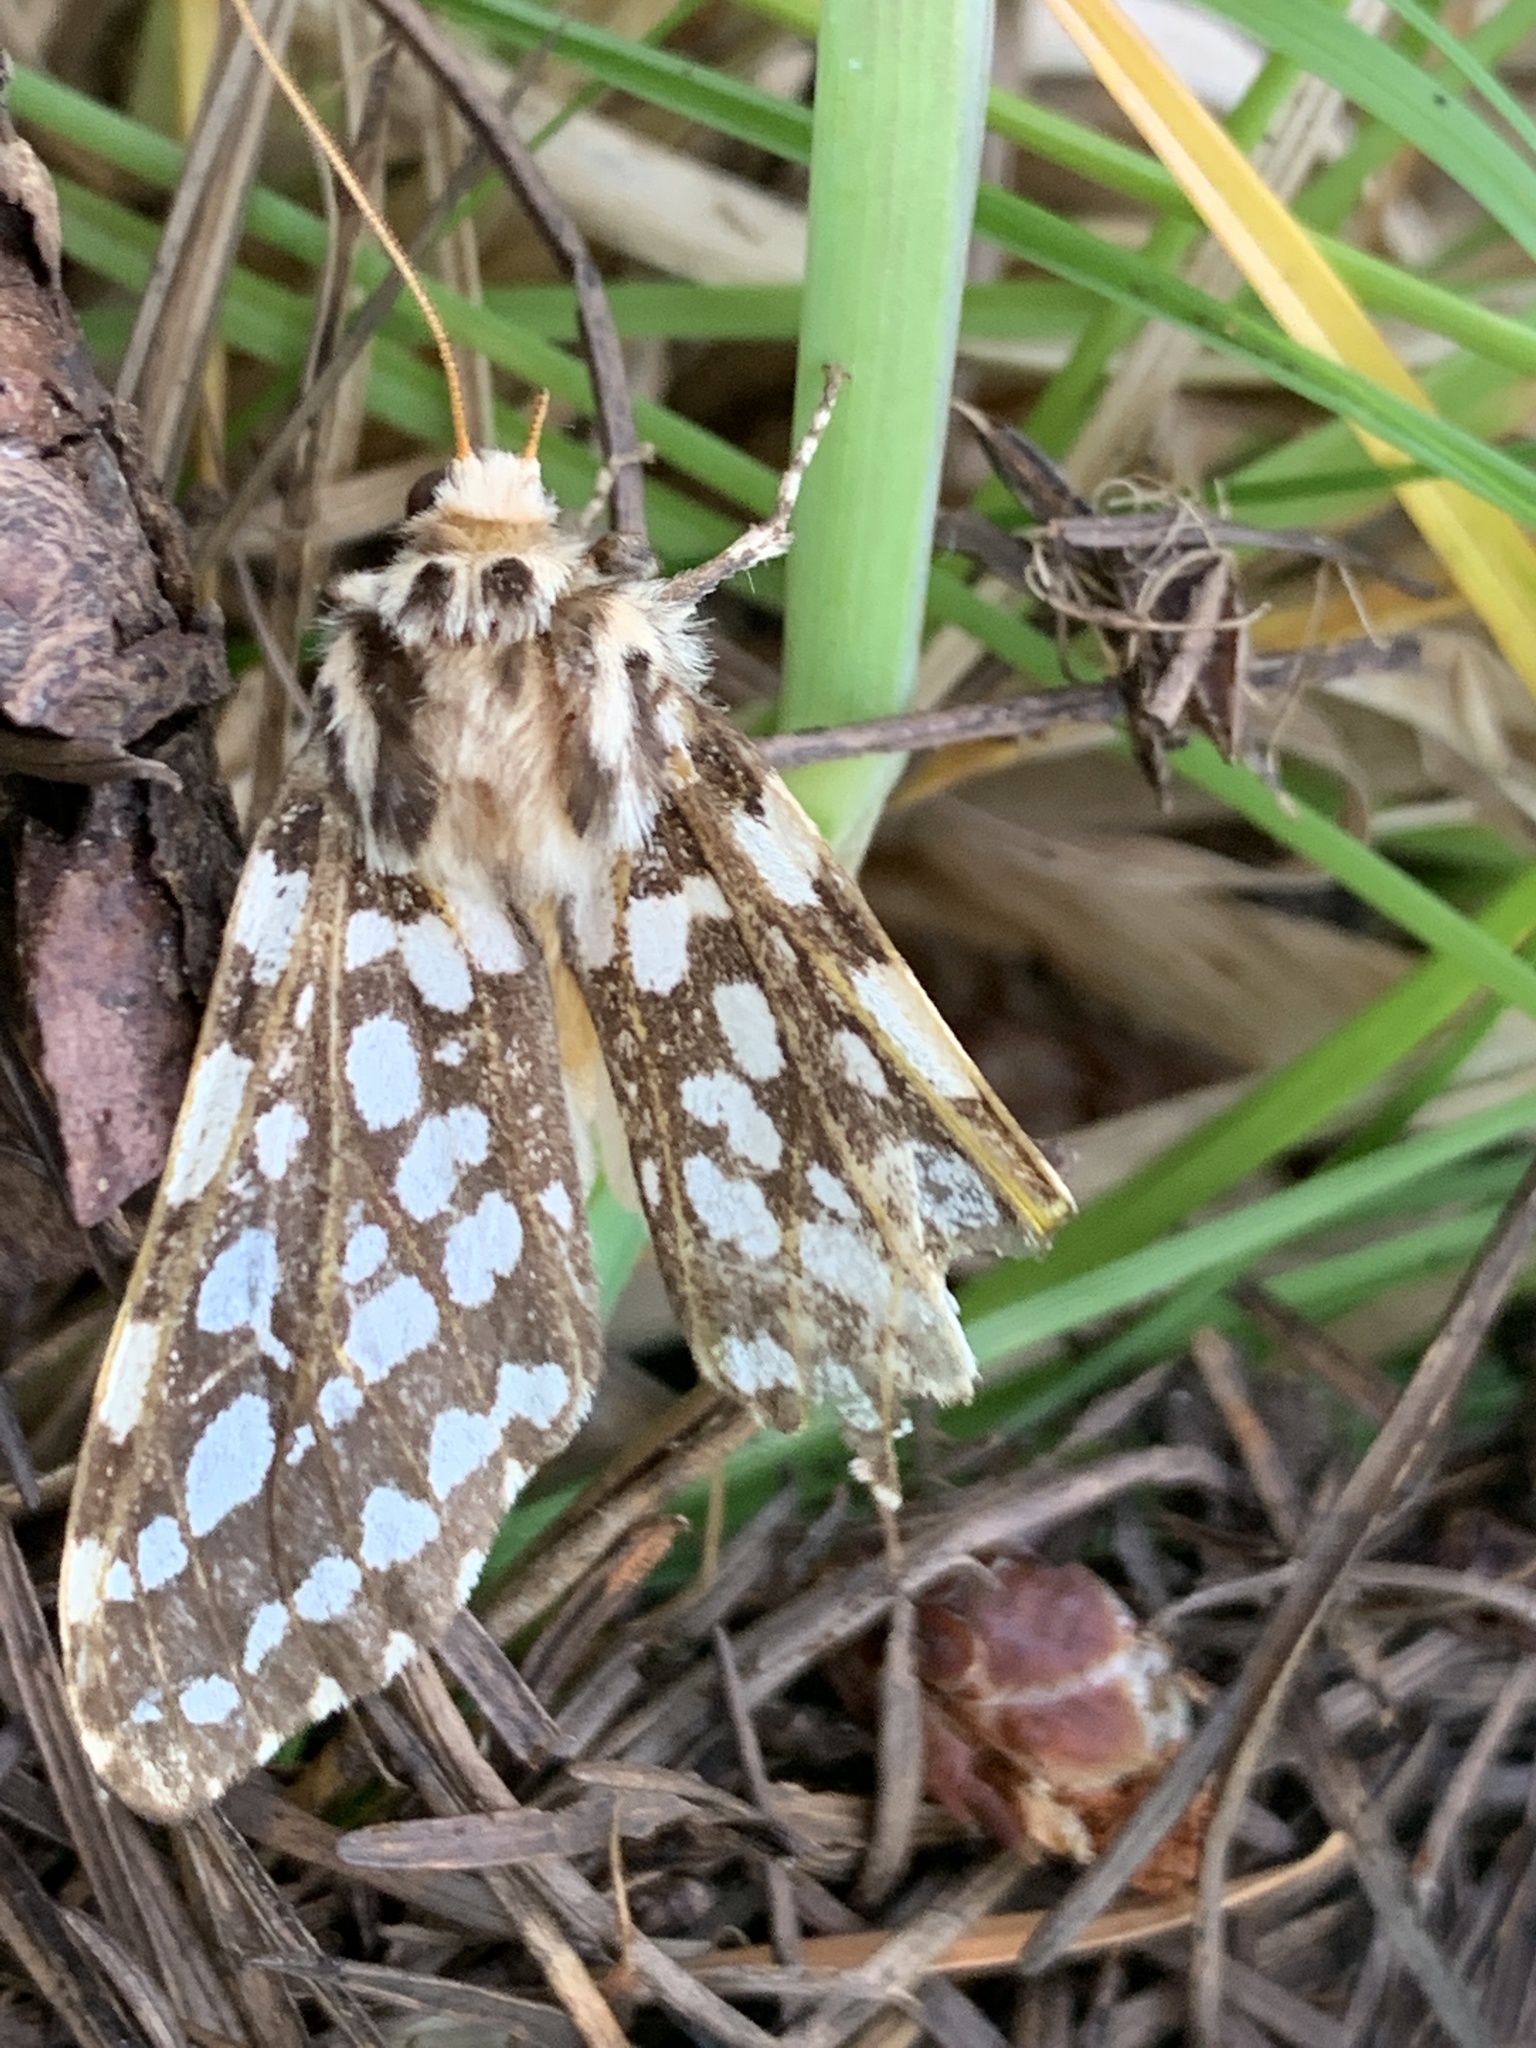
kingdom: Animalia
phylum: Arthropoda
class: Insecta
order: Lepidoptera
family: Erebidae
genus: Lophocampa
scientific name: Lophocampa argentata
